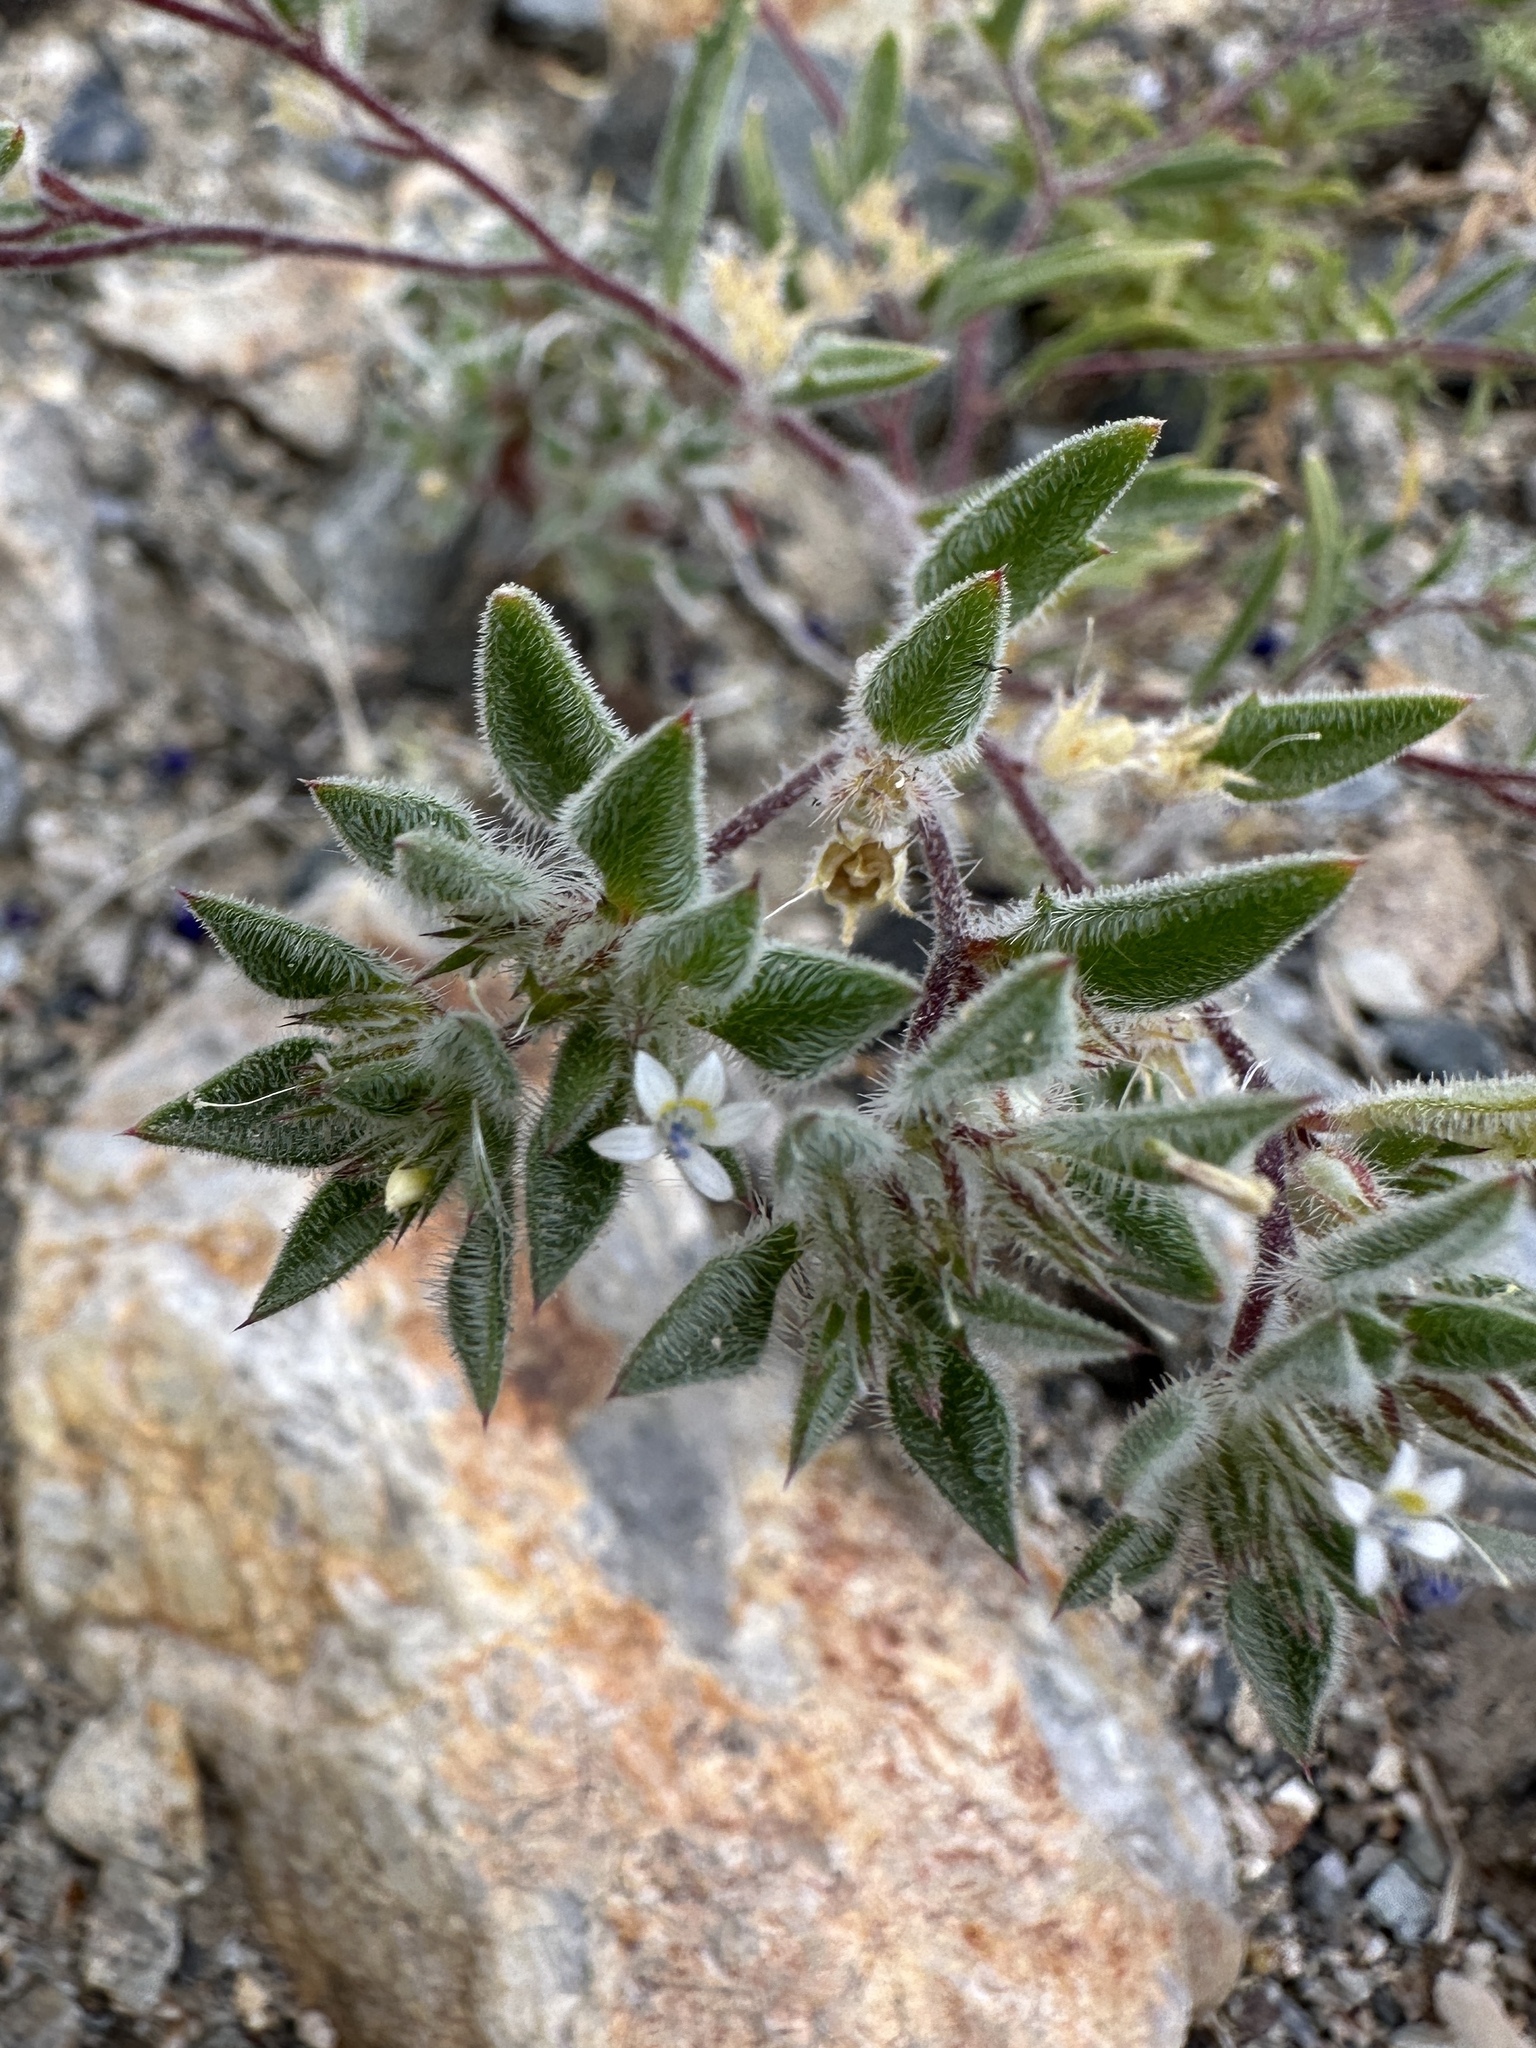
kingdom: Plantae
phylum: Tracheophyta
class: Magnoliopsida
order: Ericales
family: Polemoniaceae
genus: Loeseliastrum
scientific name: Loeseliastrum depressum
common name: Depressed ipomopsis
